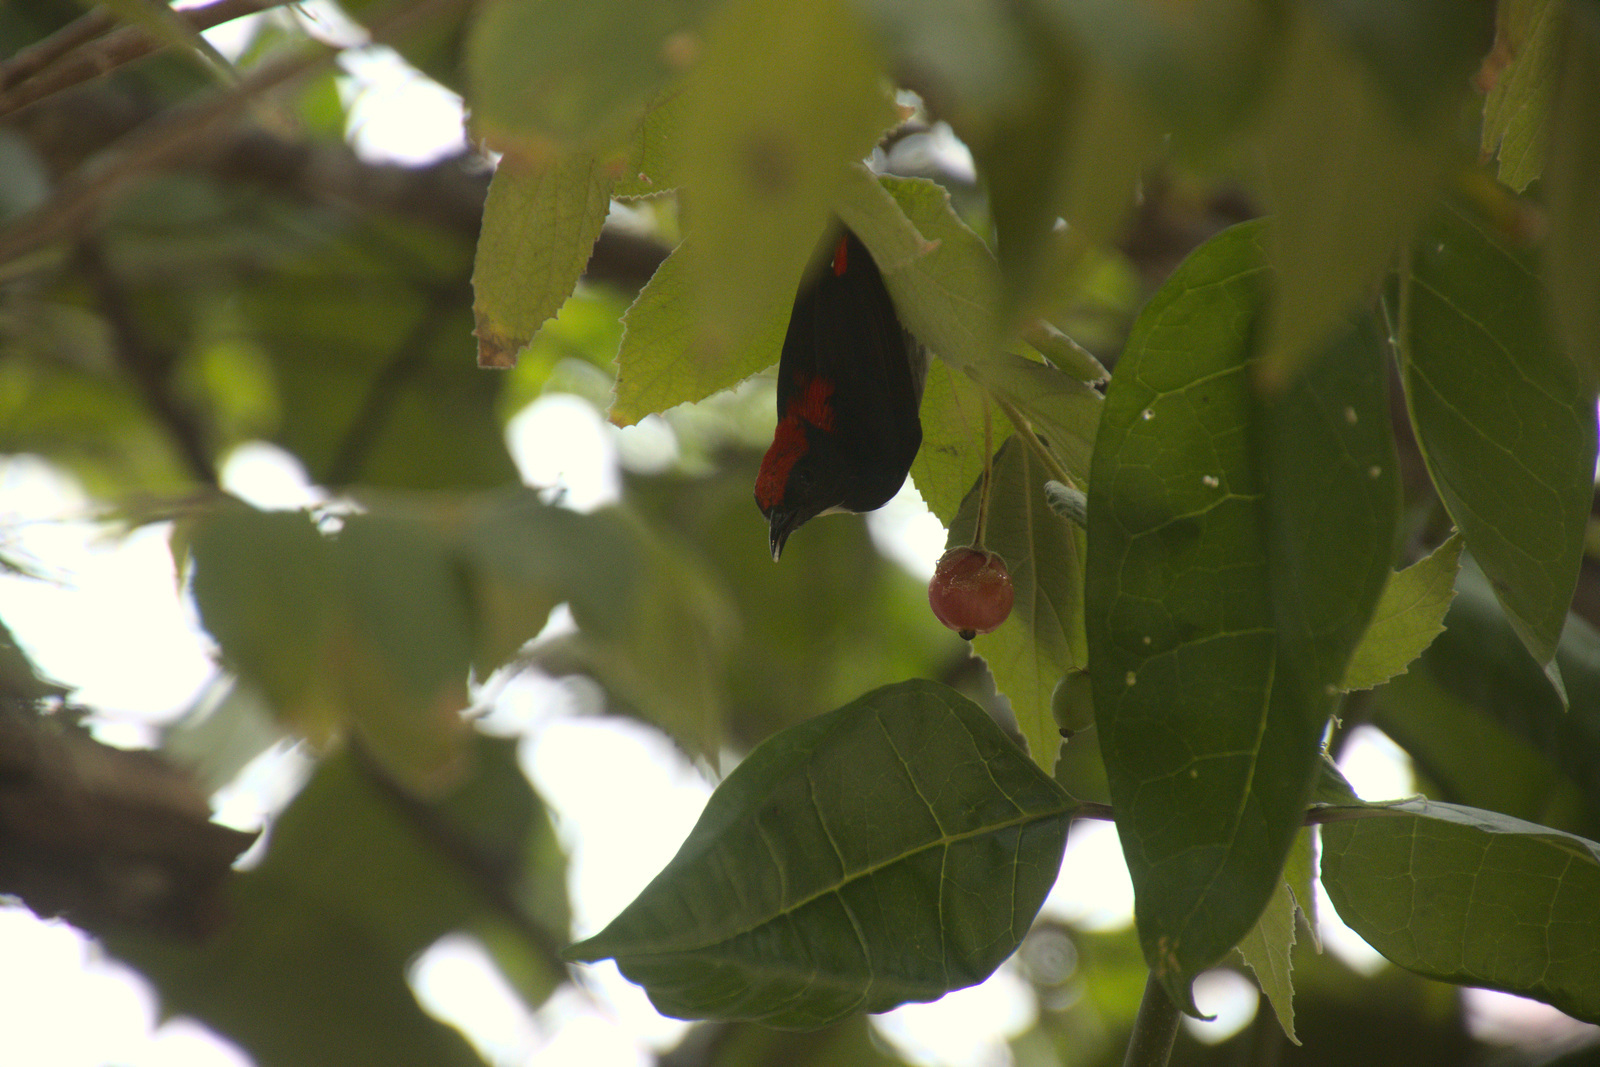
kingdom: Animalia
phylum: Chordata
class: Aves
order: Passeriformes
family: Dicaeidae
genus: Dicaeum
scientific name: Dicaeum cruentatum
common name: Scarlet-backed flowerpecker
